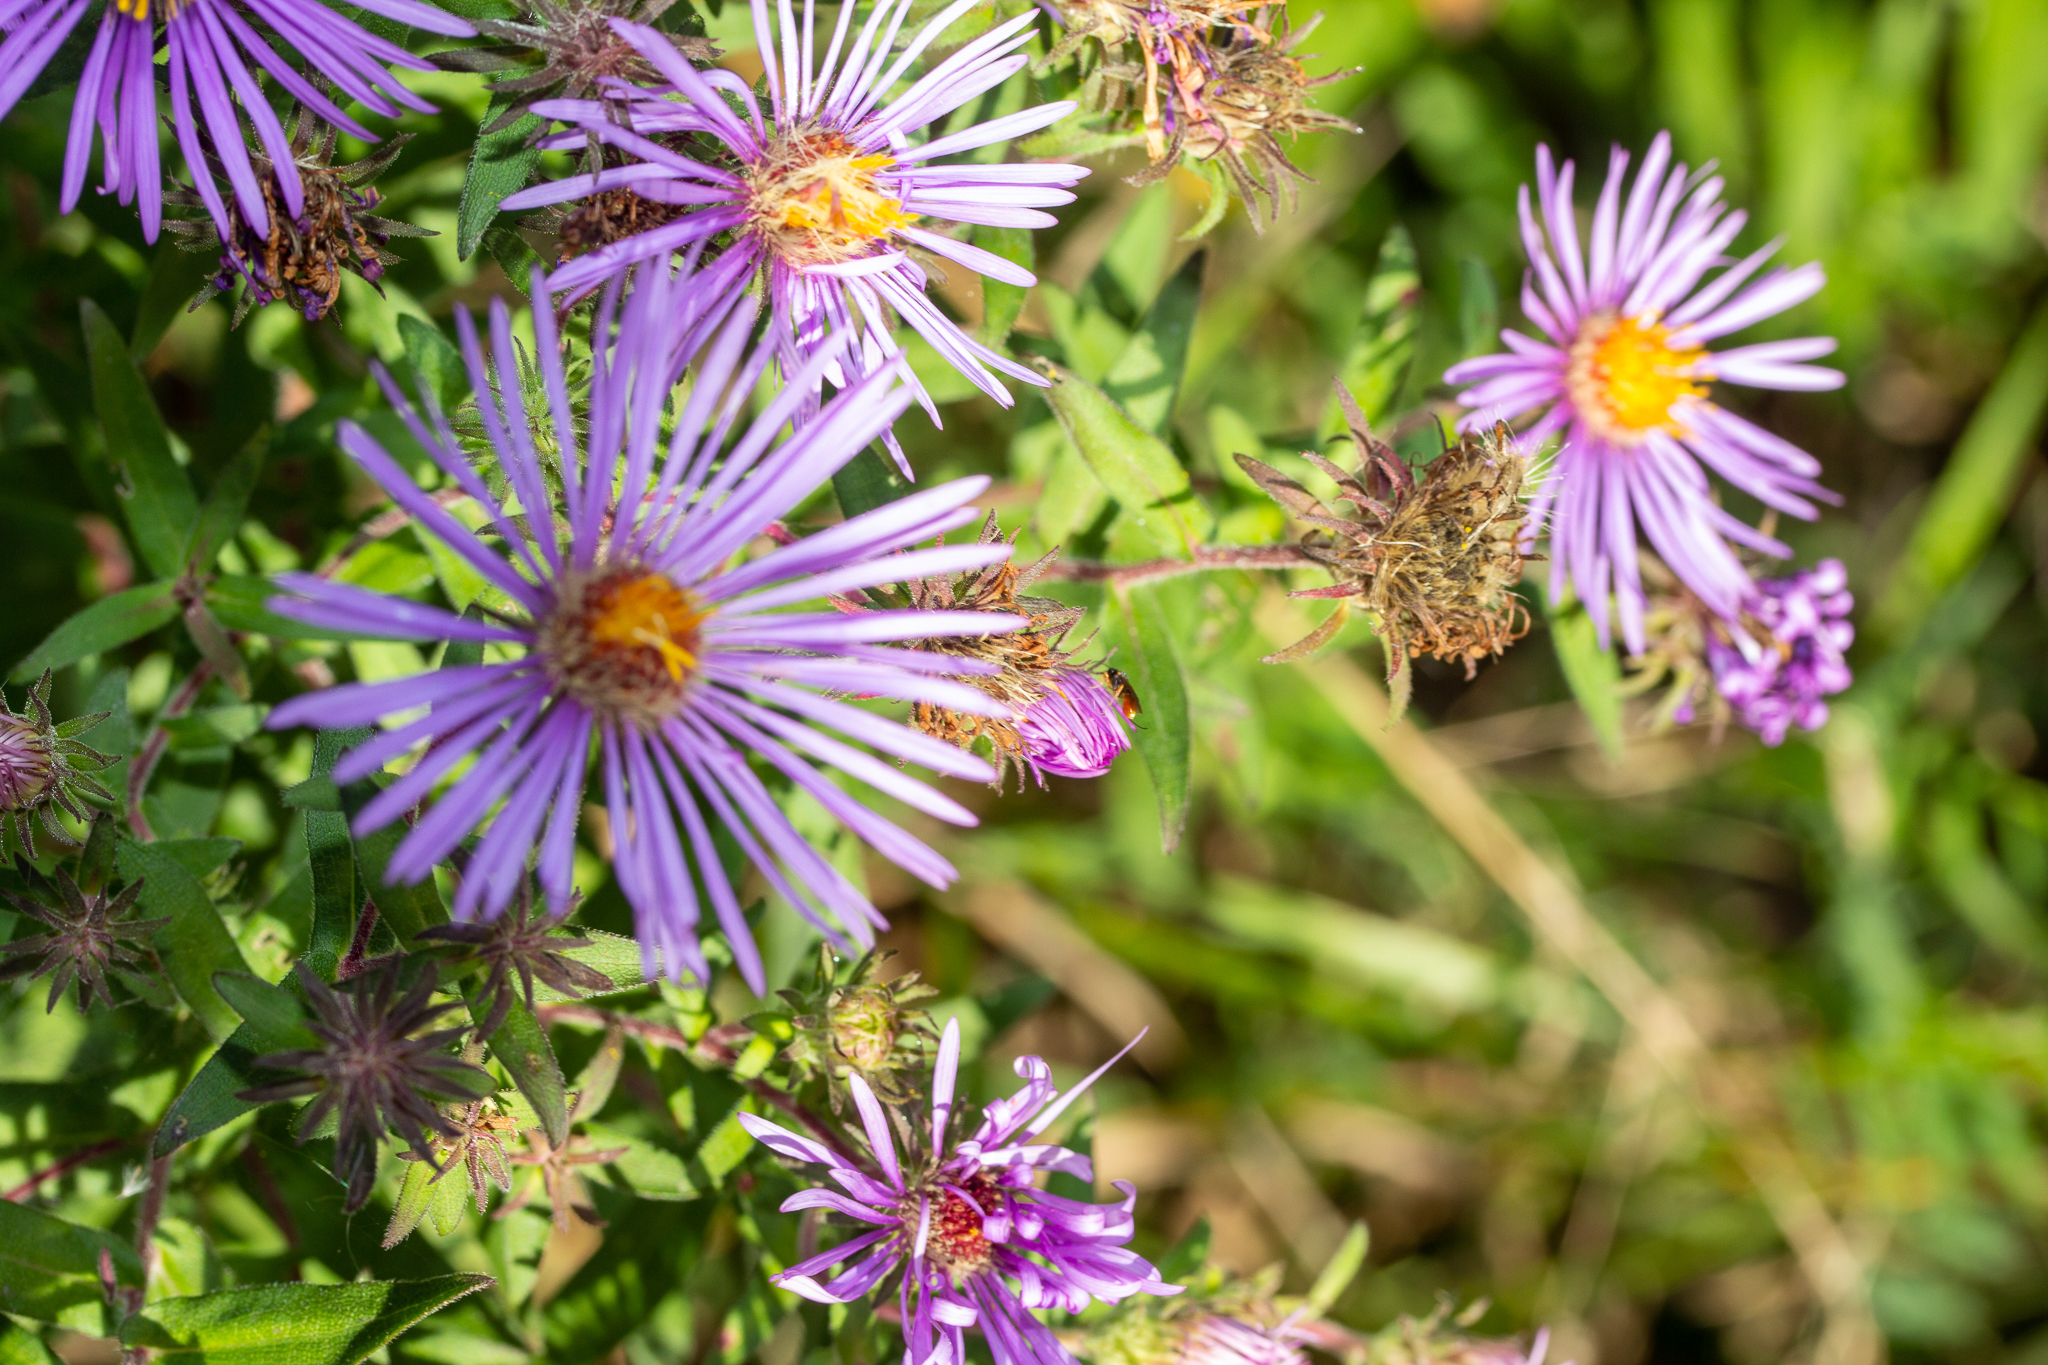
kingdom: Plantae
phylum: Tracheophyta
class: Magnoliopsida
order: Asterales
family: Asteraceae
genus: Symphyotrichum
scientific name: Symphyotrichum novae-angliae
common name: Michaelmas daisy
